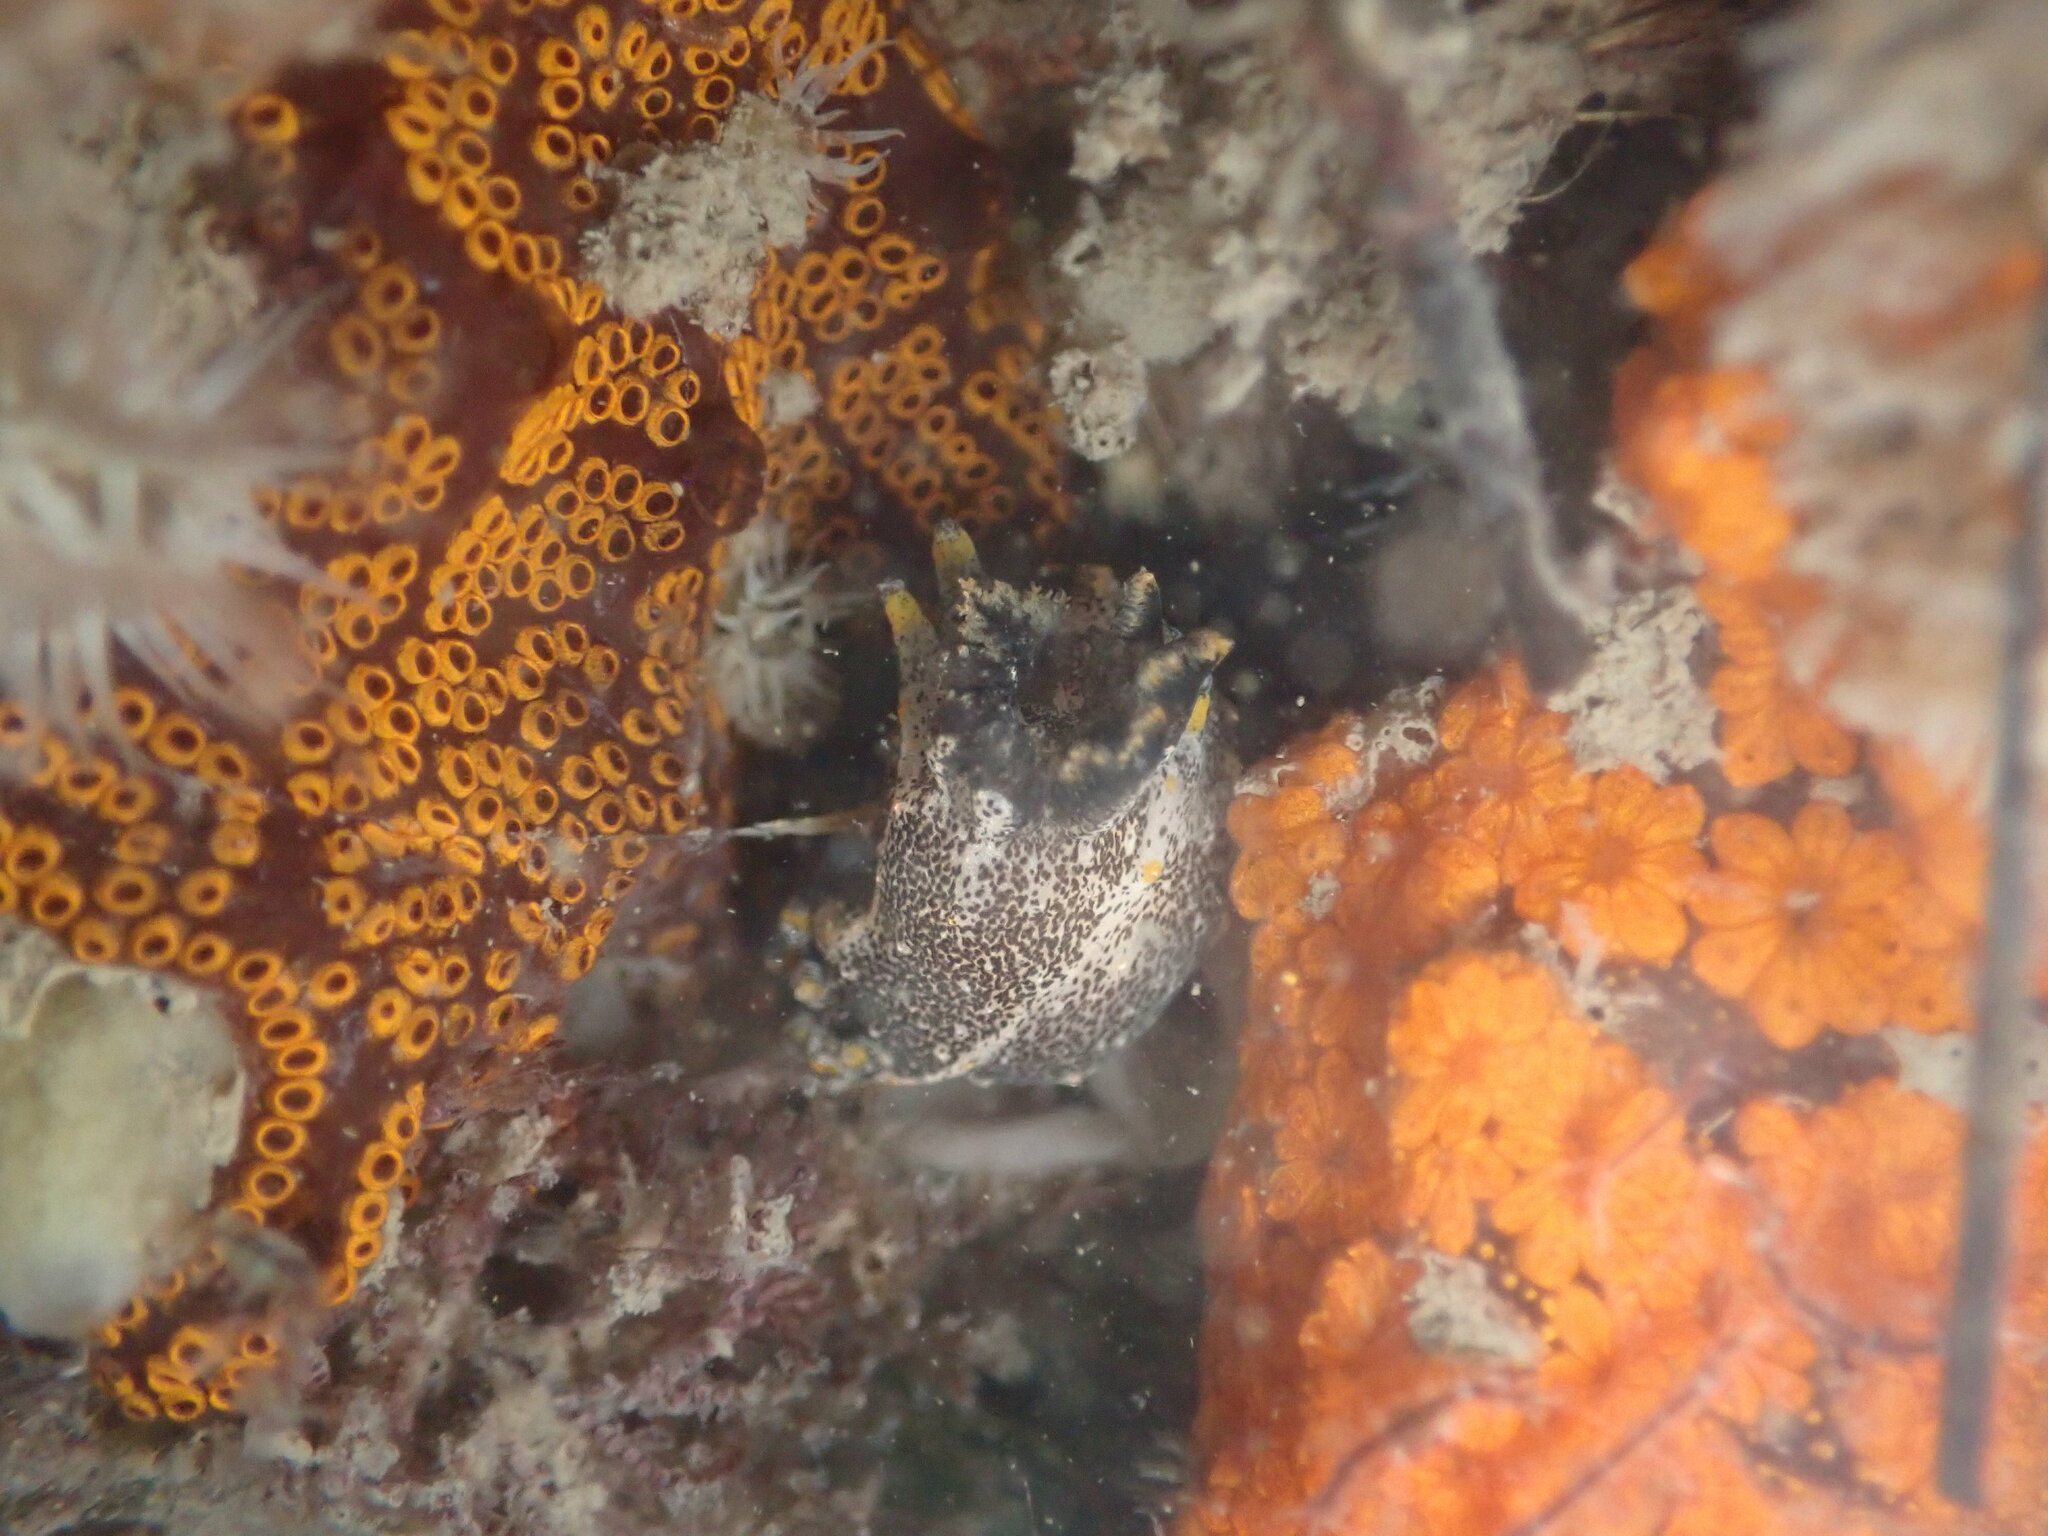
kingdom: Animalia
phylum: Mollusca
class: Gastropoda
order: Nudibranchia
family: Polyceridae
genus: Polycera
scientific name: Polycera hedgpethi
